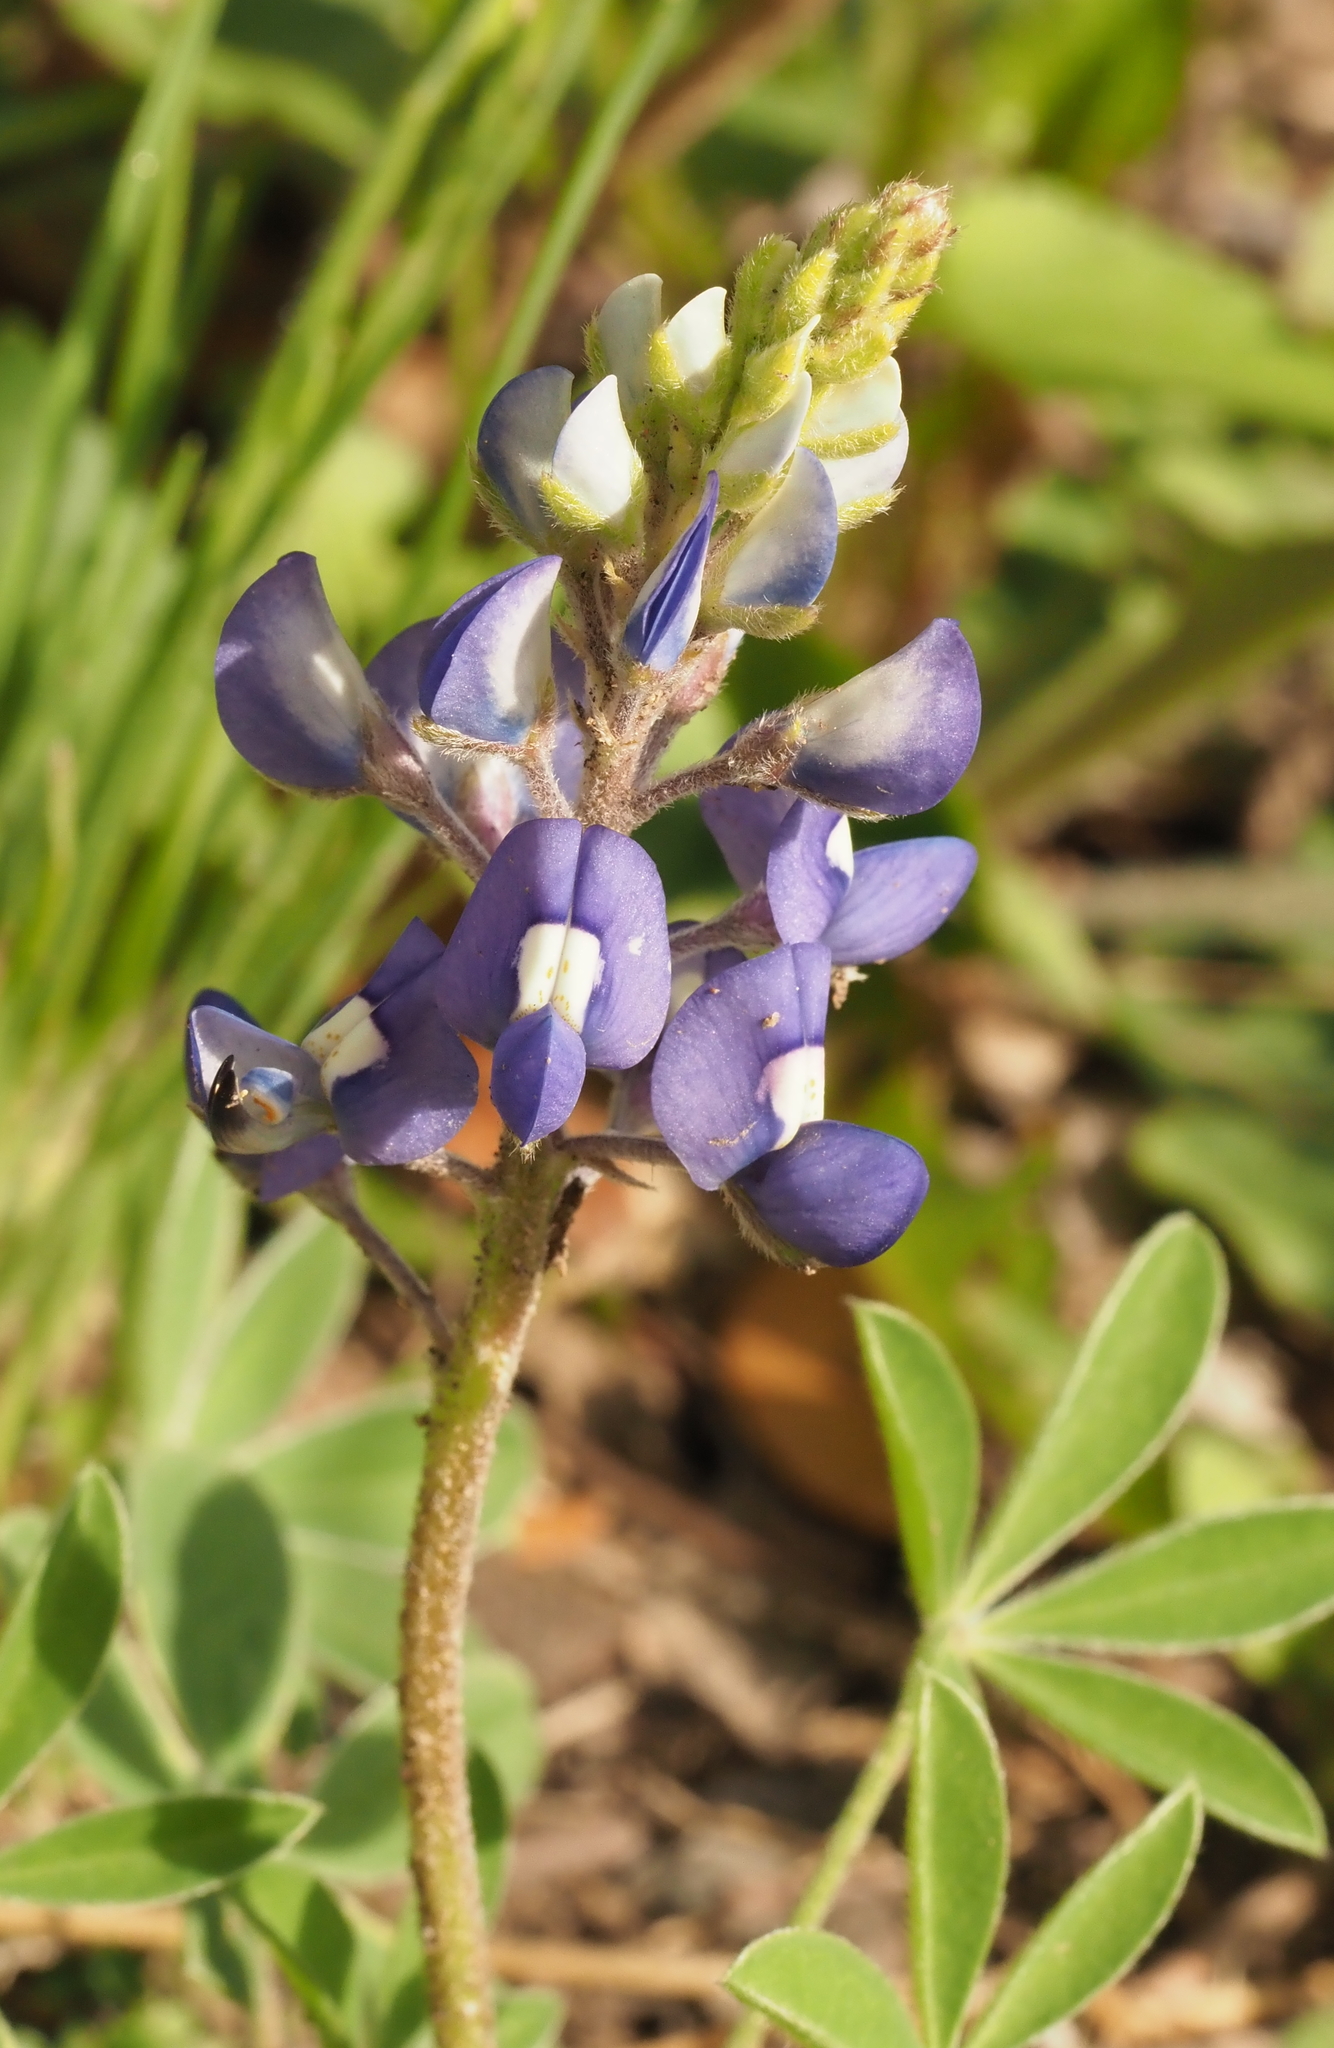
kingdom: Plantae
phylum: Tracheophyta
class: Magnoliopsida
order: Fabales
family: Fabaceae
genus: Lupinus
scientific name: Lupinus texensis
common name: Texas bluebonnet
